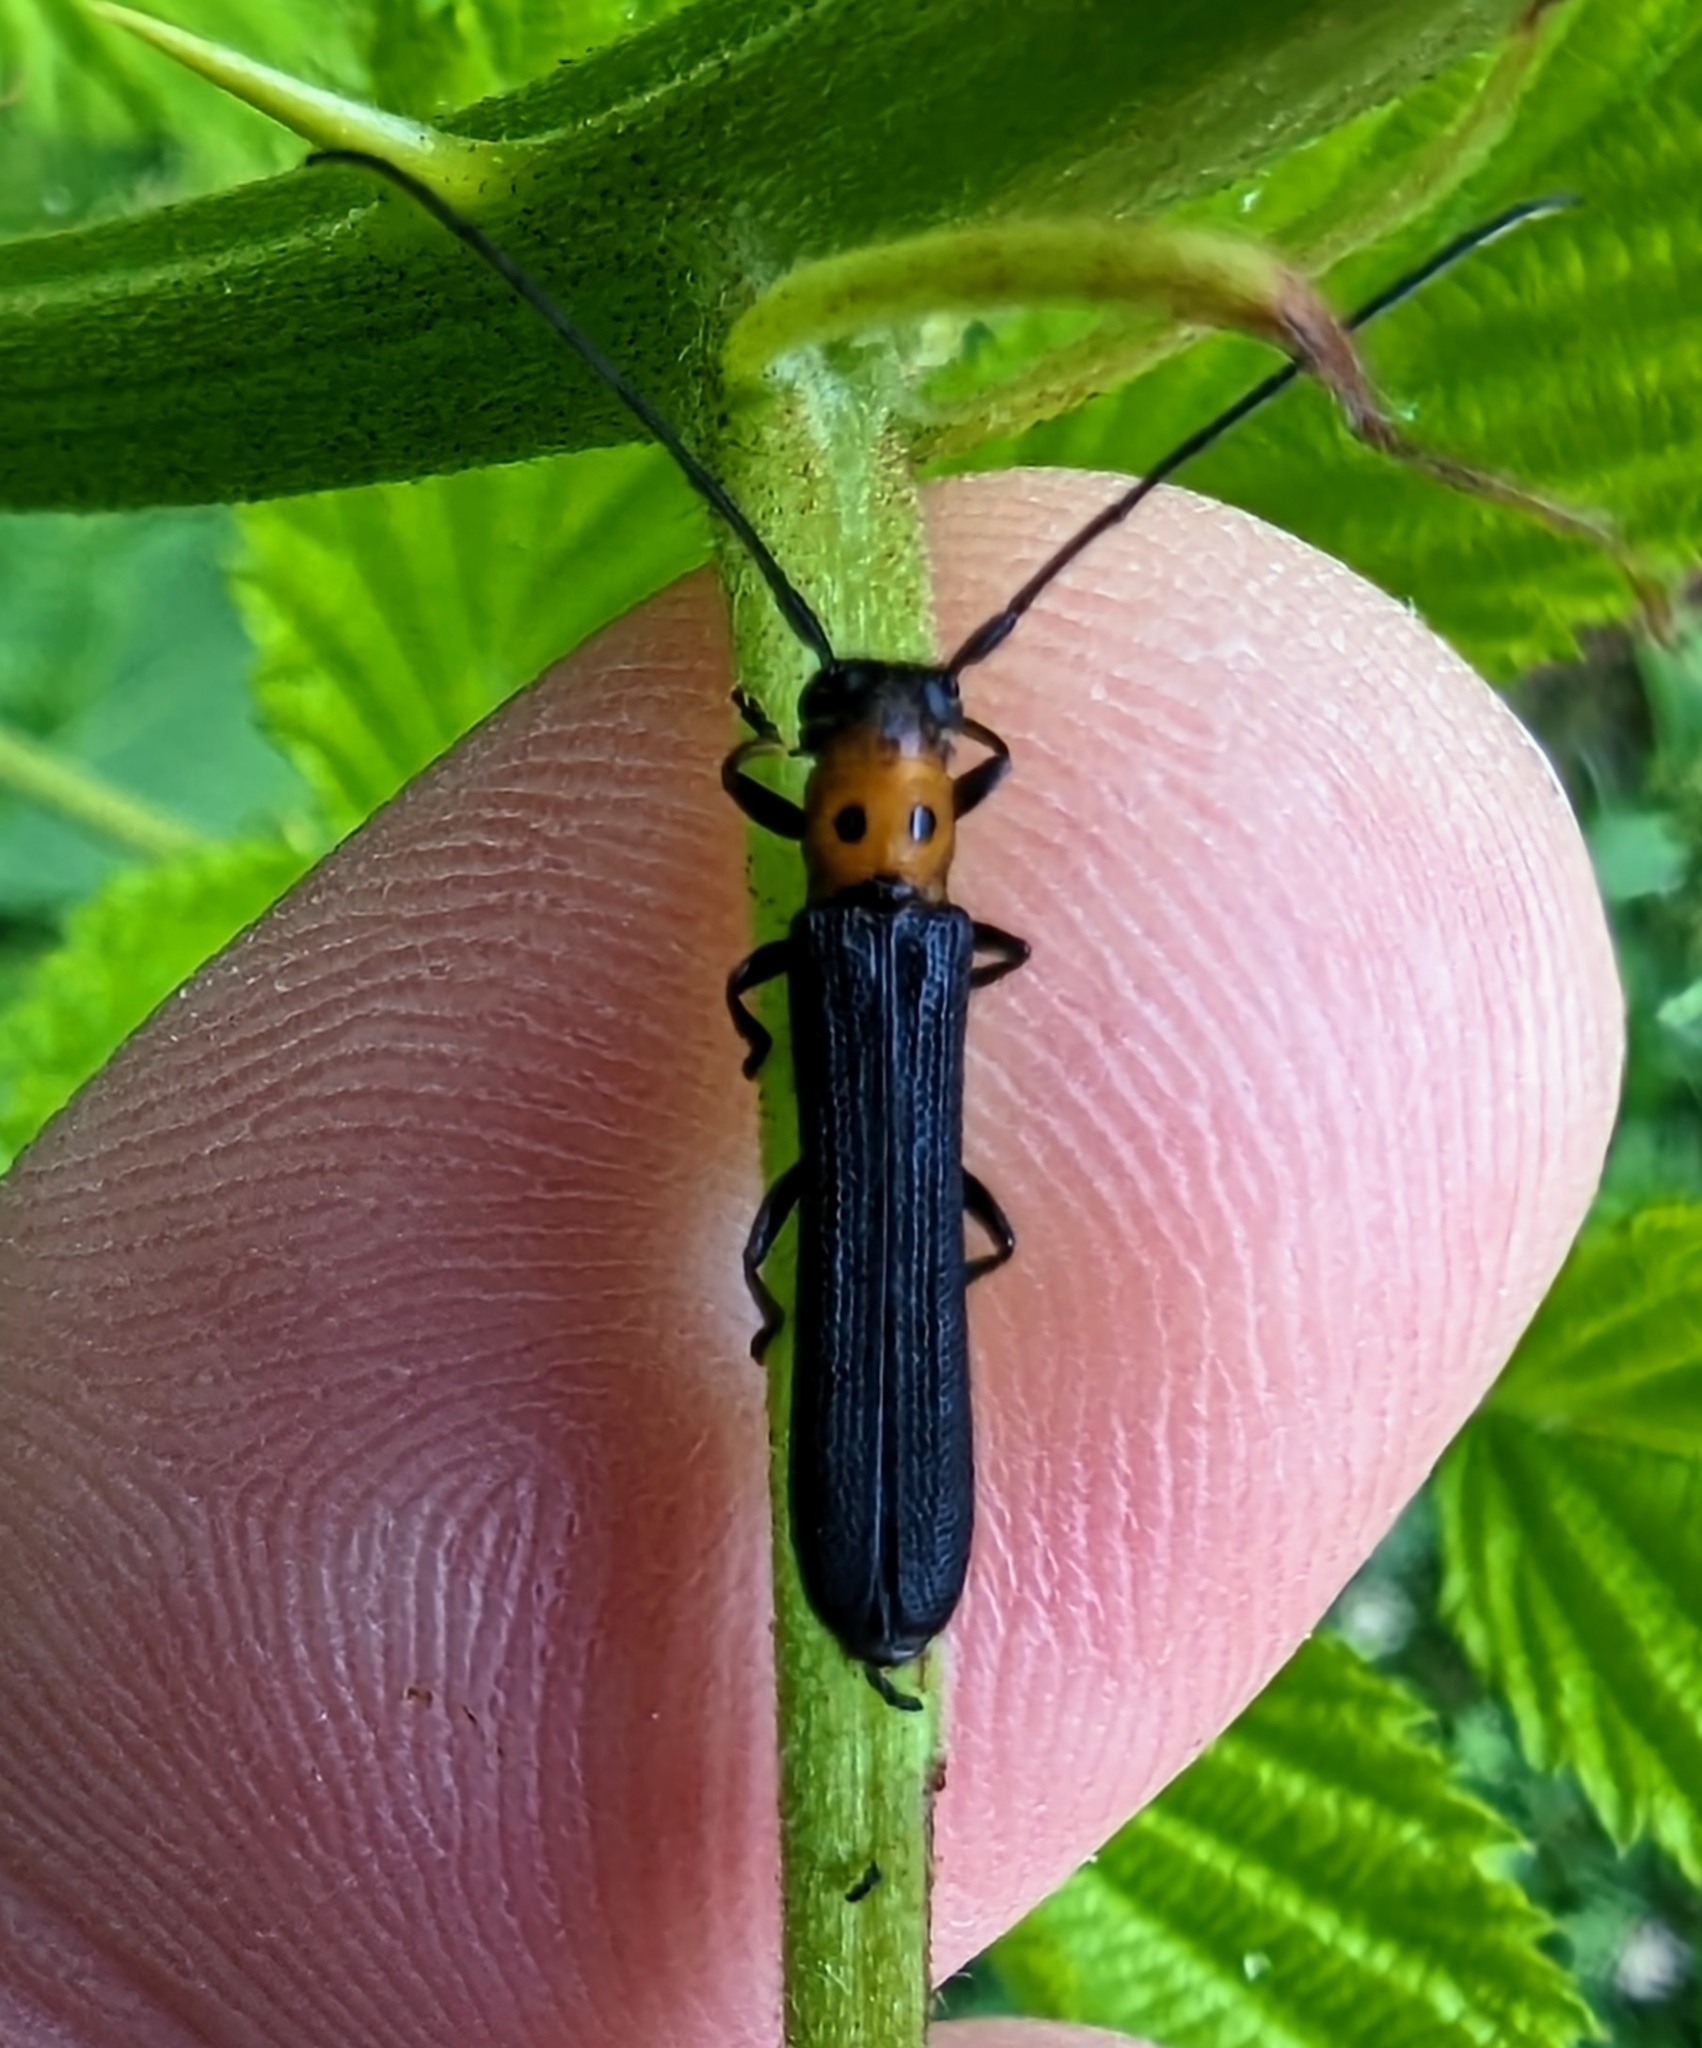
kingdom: Animalia
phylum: Arthropoda
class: Insecta
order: Coleoptera
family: Cerambycidae
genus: Oberea
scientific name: Oberea perspicillata
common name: Raspberry cane borer
